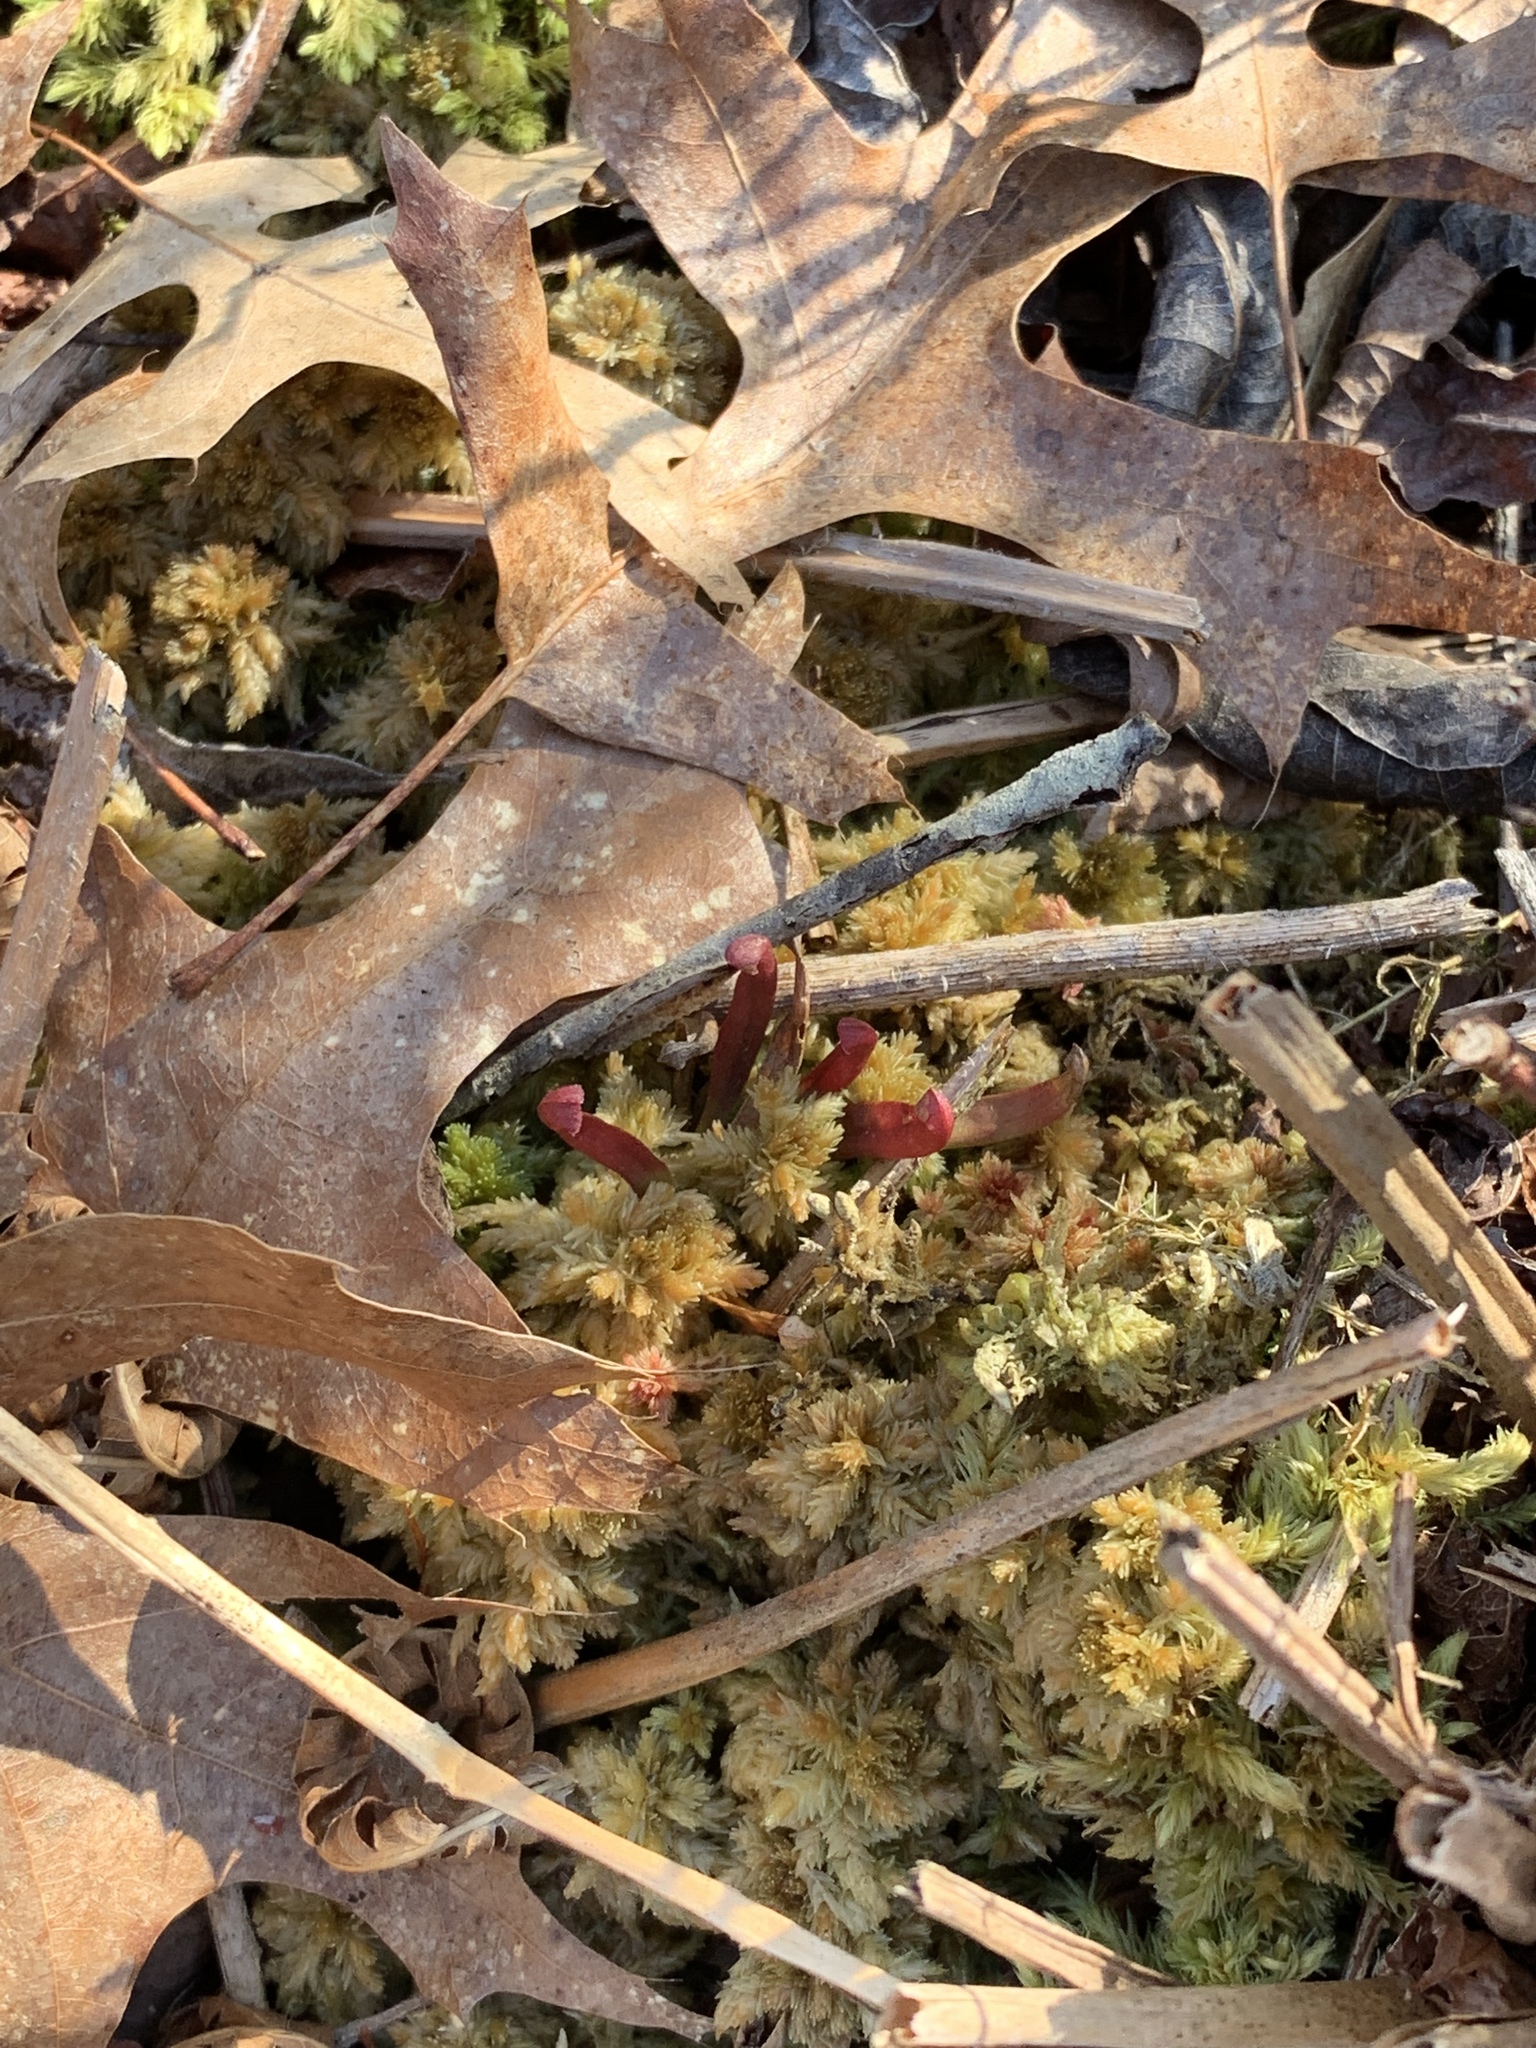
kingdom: Plantae
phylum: Tracheophyta
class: Magnoliopsida
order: Ericales
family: Sarraceniaceae
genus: Sarracenia
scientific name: Sarracenia purpurea
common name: Pitcherplant
